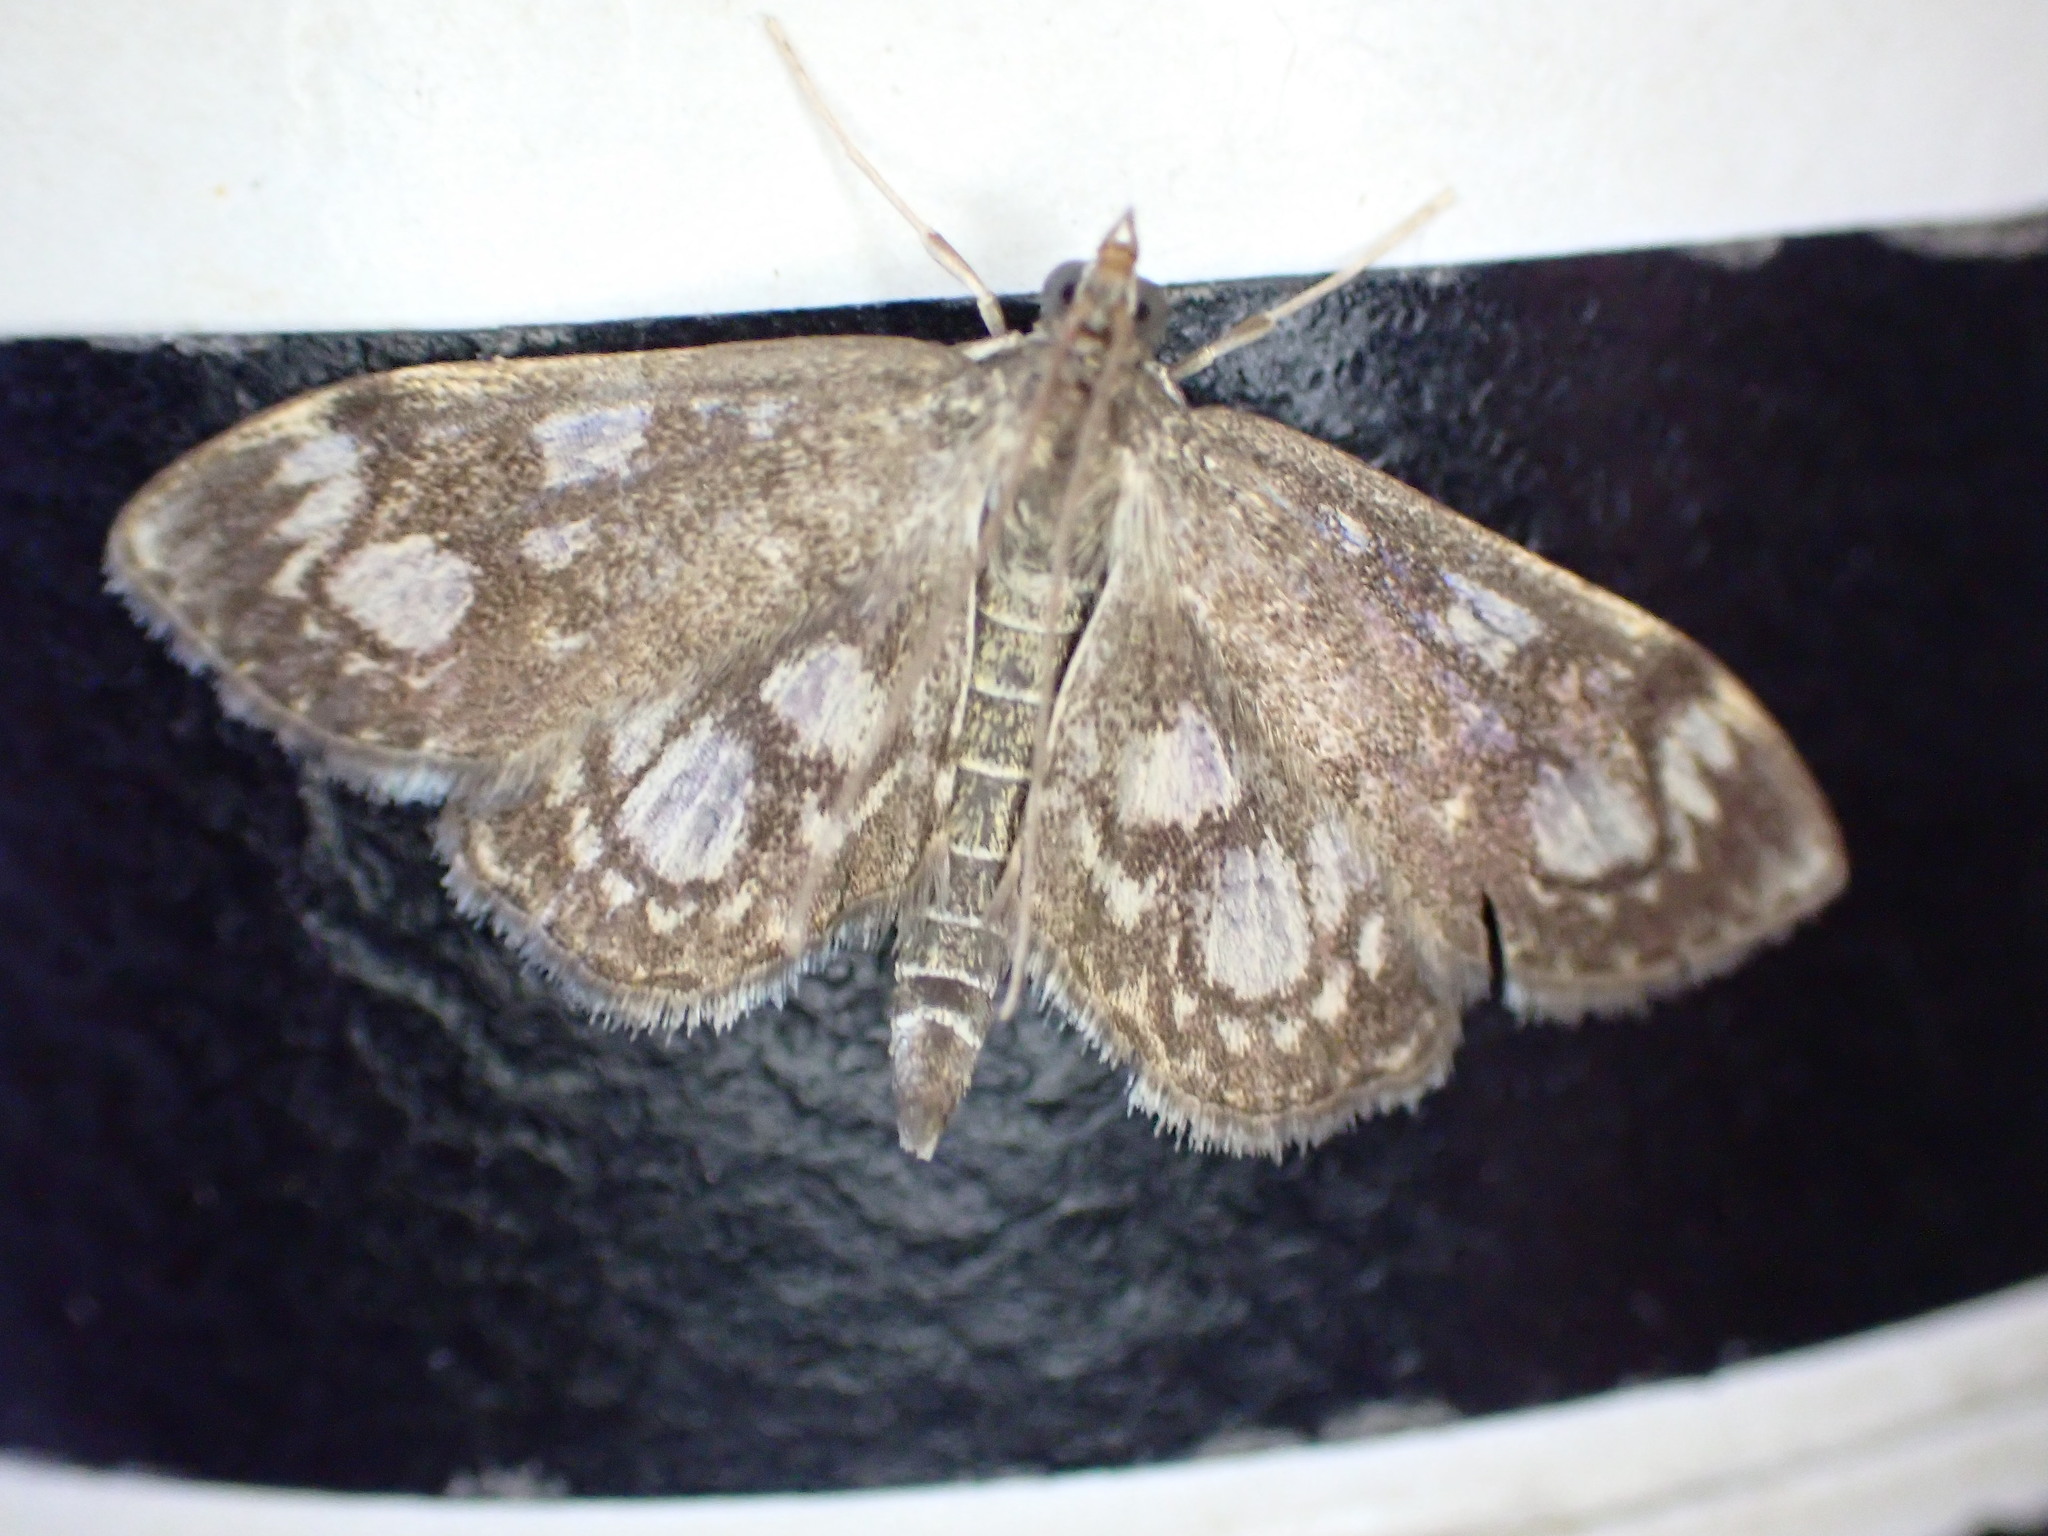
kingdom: Animalia
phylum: Arthropoda
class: Insecta
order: Lepidoptera
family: Crambidae
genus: Anania
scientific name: Anania coronata
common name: Elder pearl
